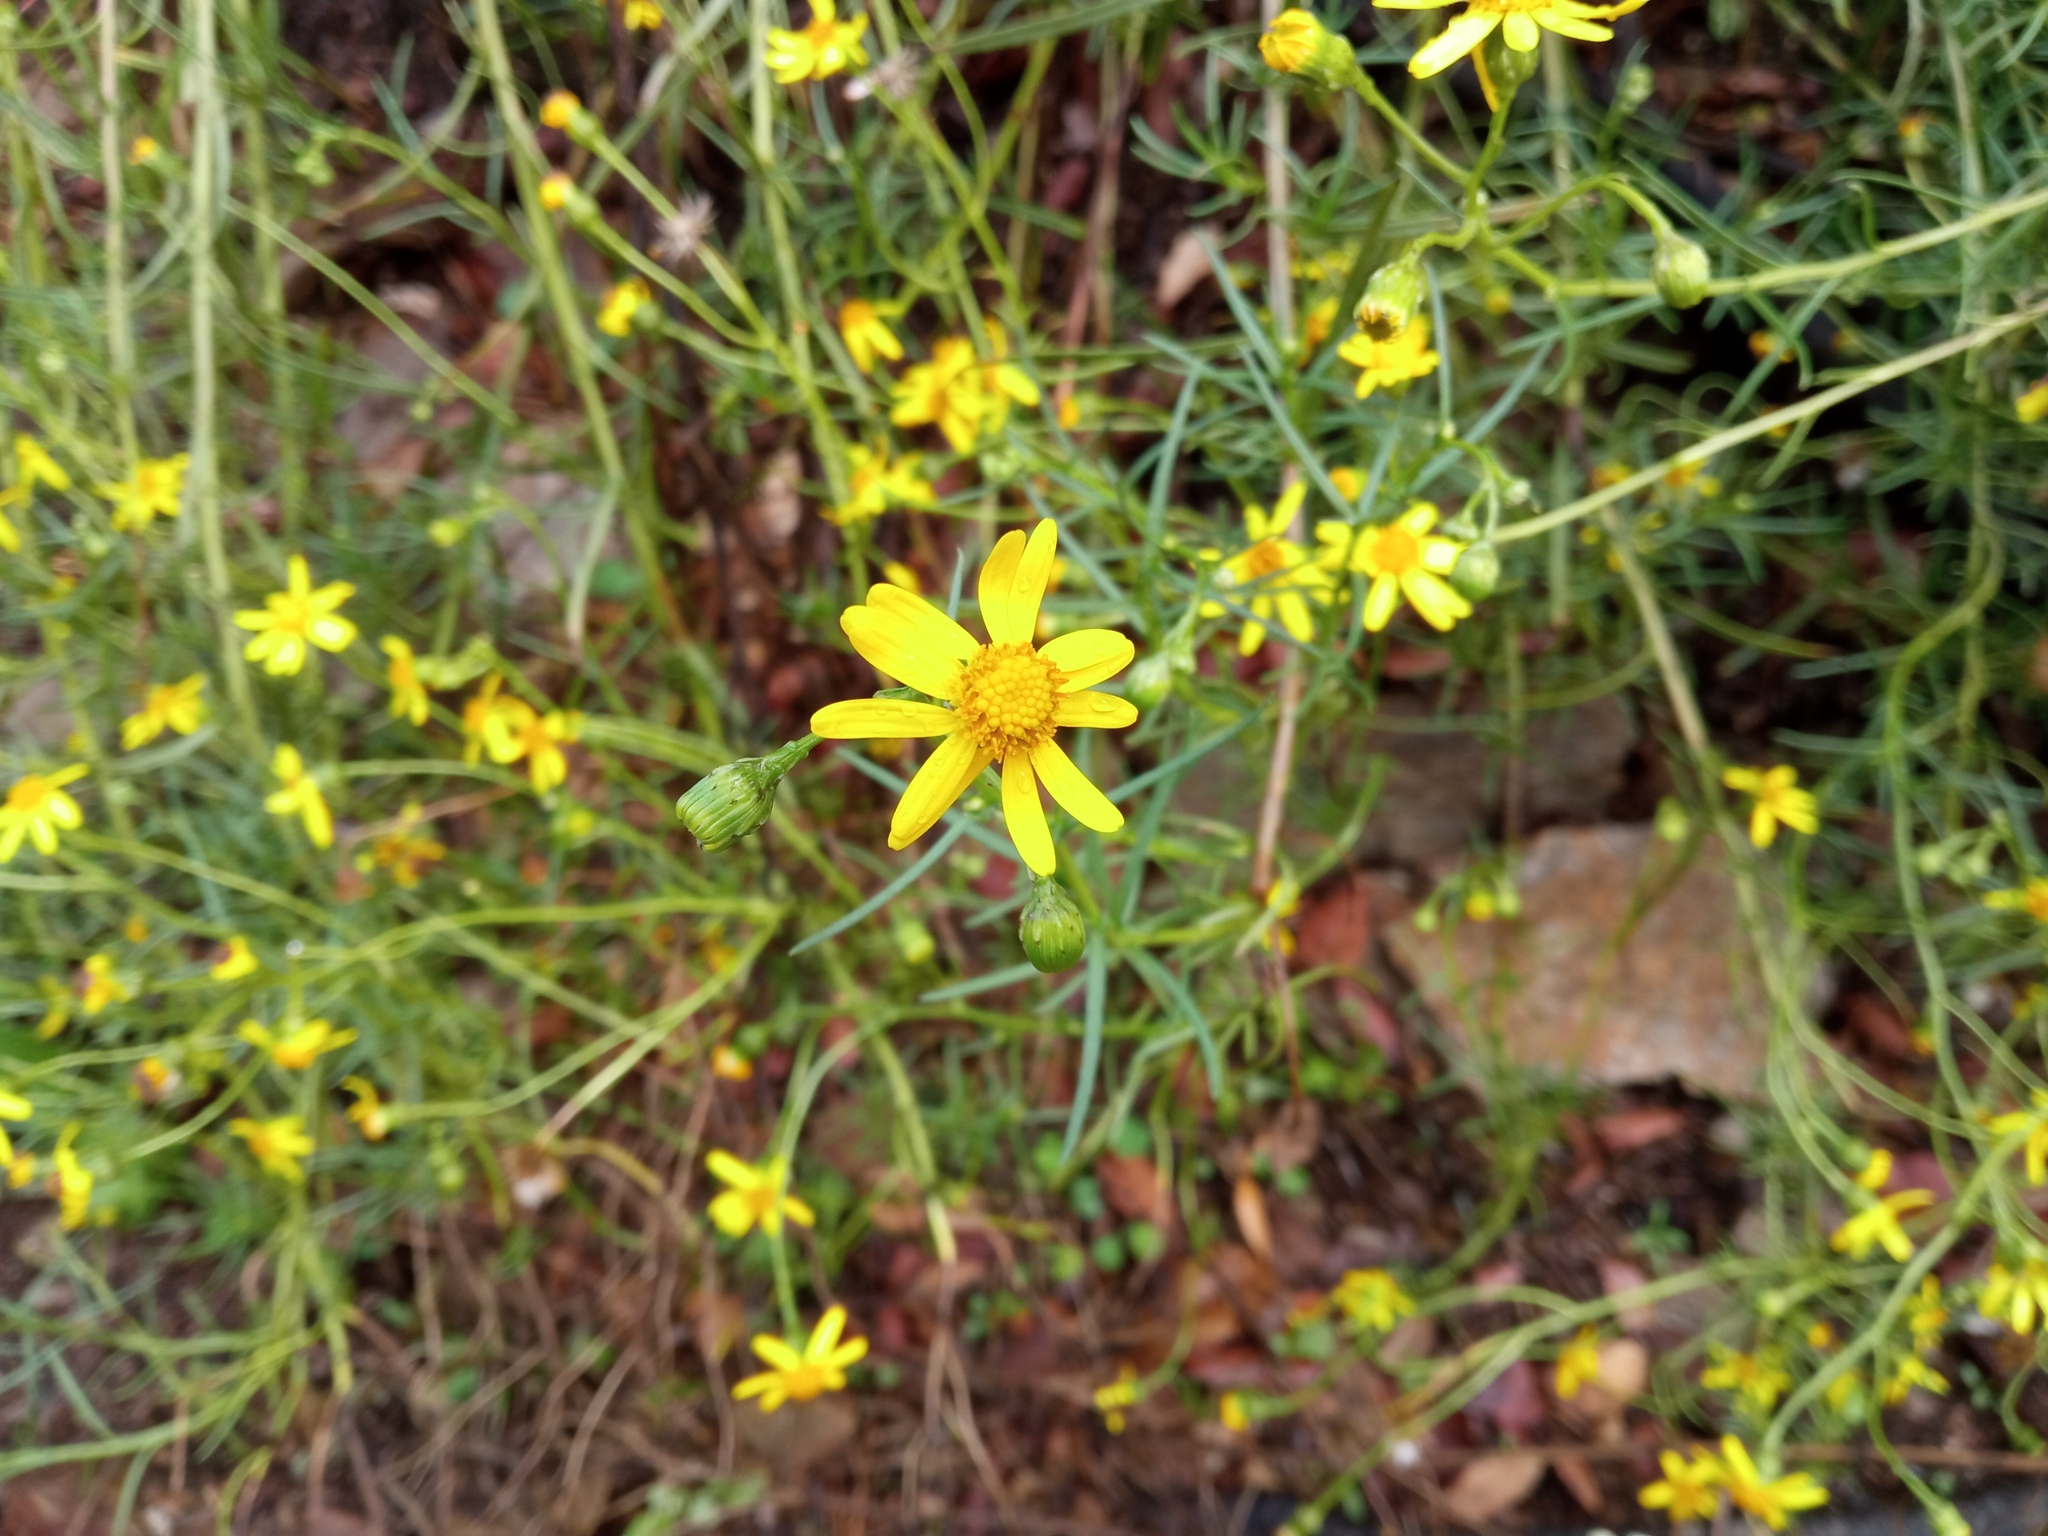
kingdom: Plantae
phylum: Tracheophyta
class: Magnoliopsida
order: Asterales
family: Asteraceae
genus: Senecio
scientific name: Senecio inaequidens
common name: Narrow-leaved ragwort
